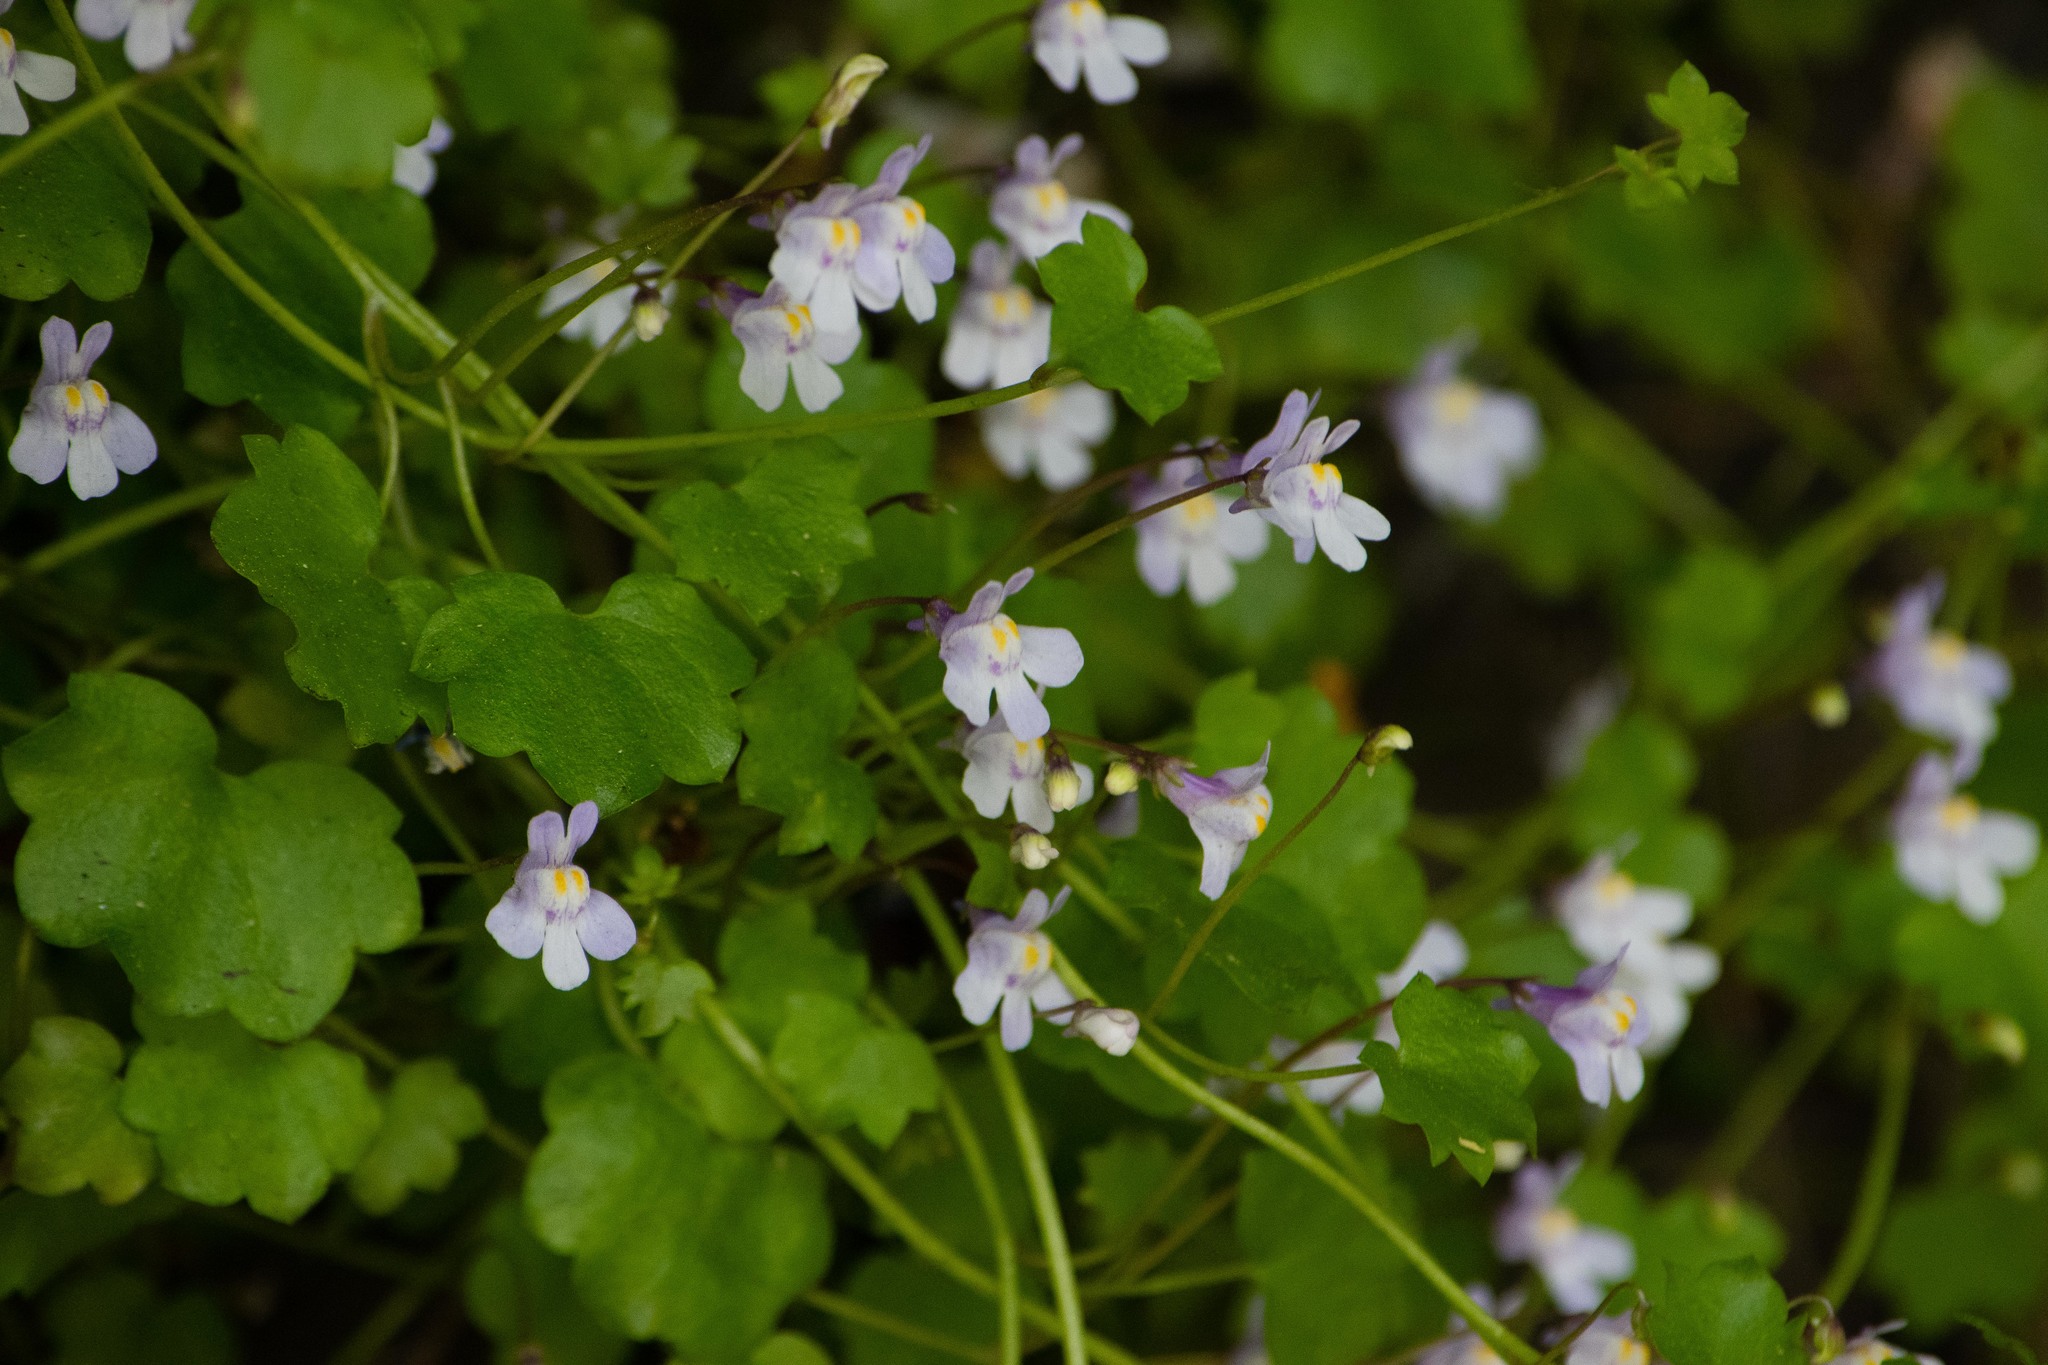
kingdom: Plantae
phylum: Tracheophyta
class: Magnoliopsida
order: Lamiales
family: Plantaginaceae
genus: Cymbalaria
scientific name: Cymbalaria muralis
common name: Ivy-leaved toadflax
